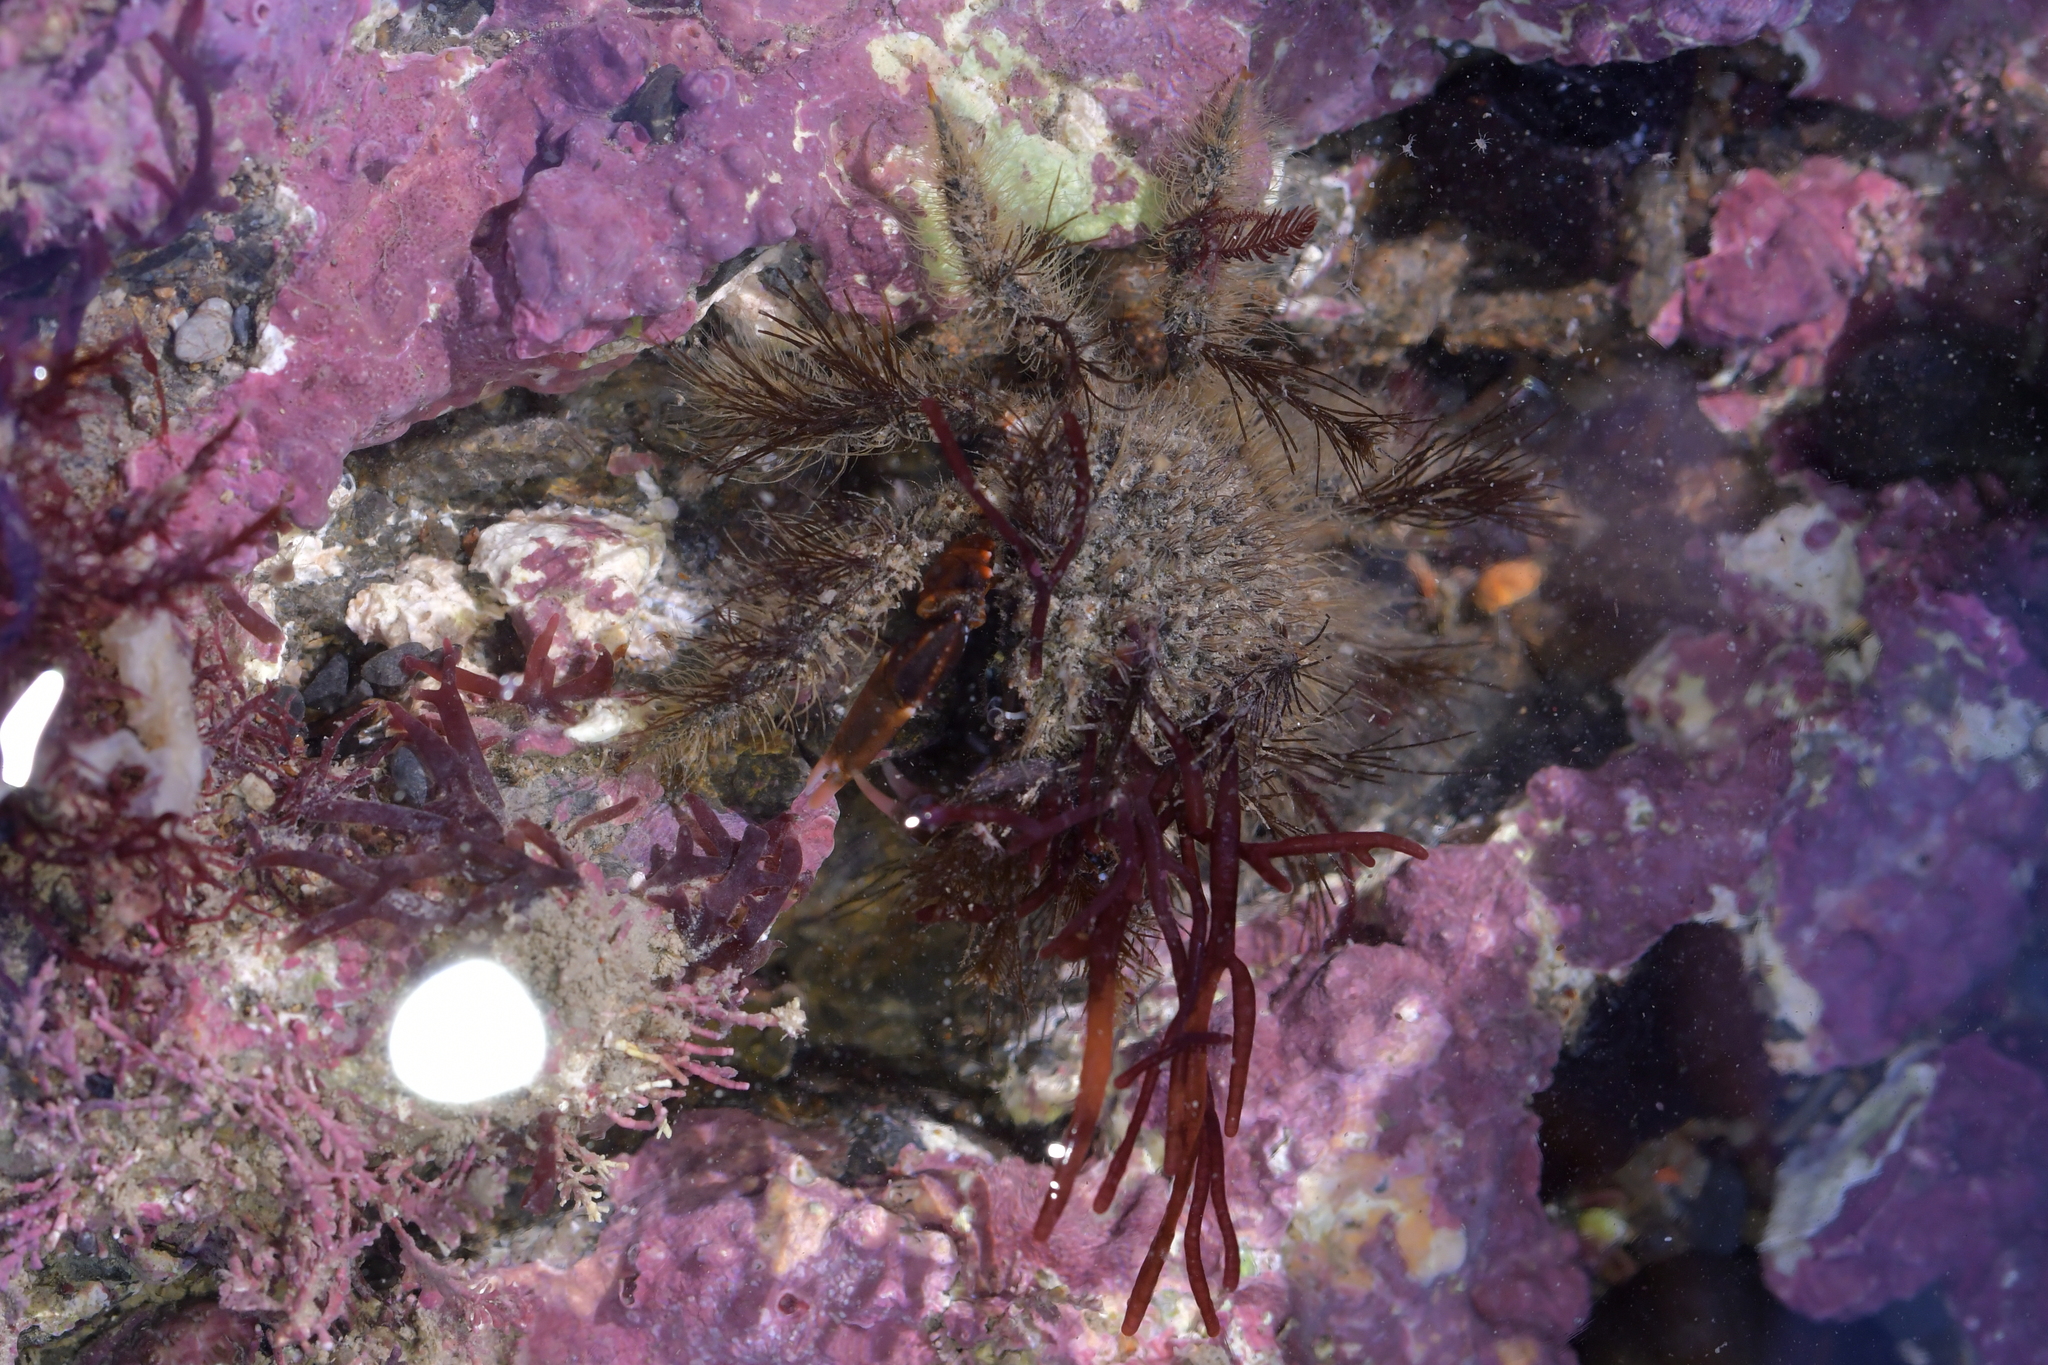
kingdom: Animalia
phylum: Arthropoda
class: Malacostraca
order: Decapoda
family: Majidae
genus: Notomithrax
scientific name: Notomithrax ursus
